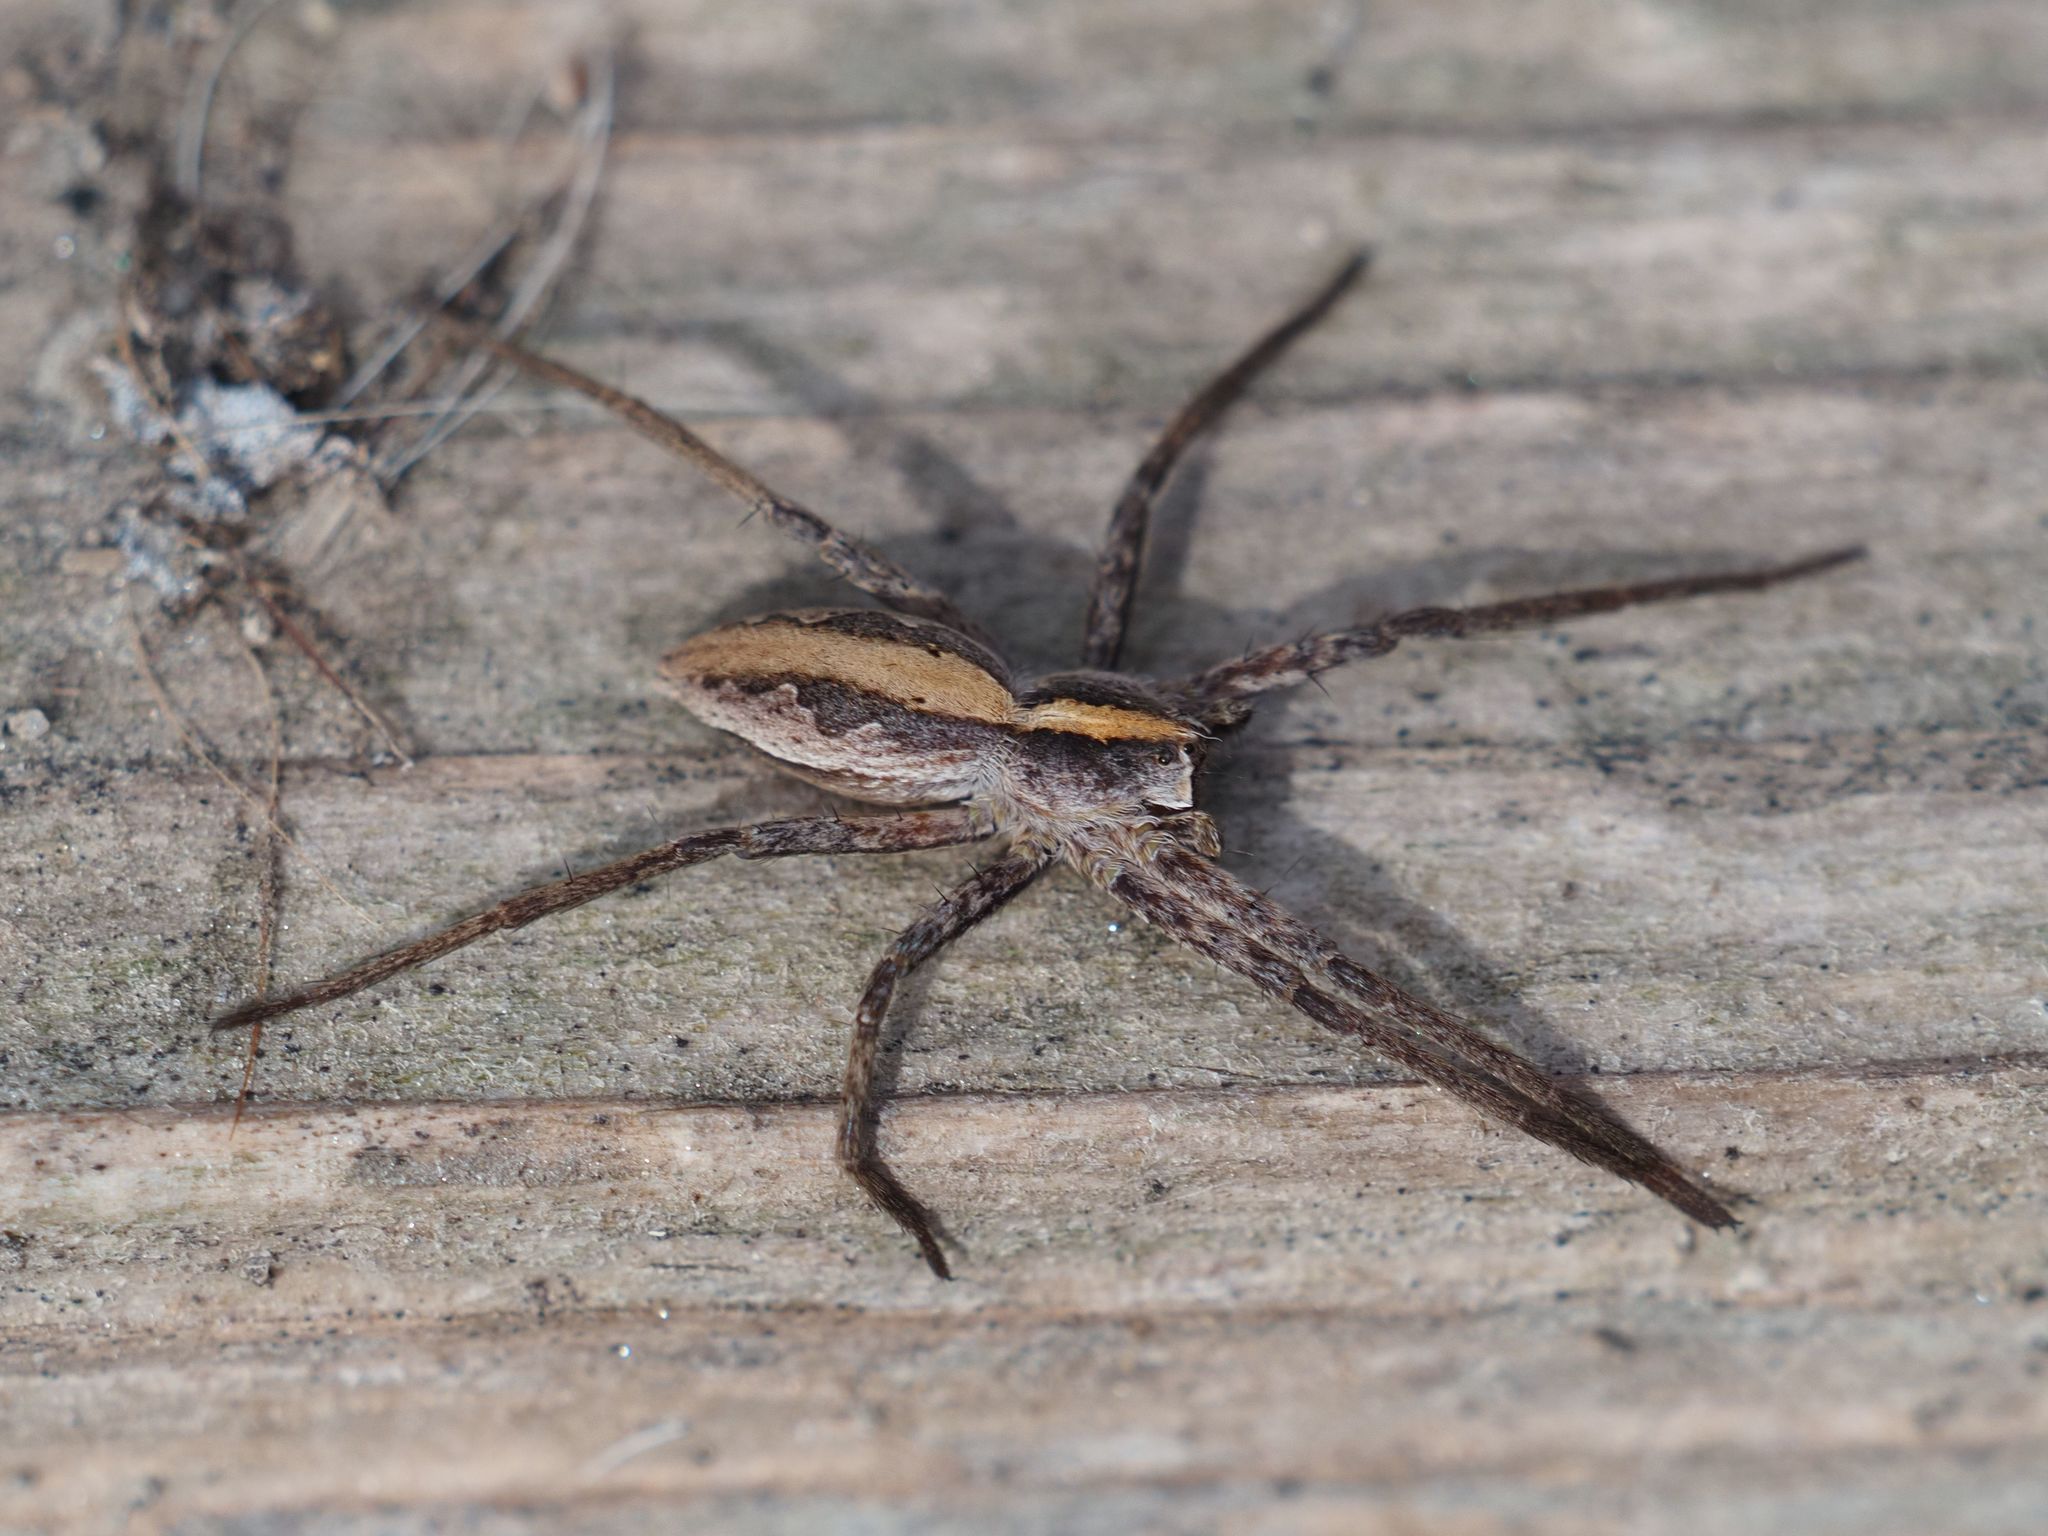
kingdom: Animalia
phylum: Arthropoda
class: Arachnida
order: Araneae
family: Pisauridae
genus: Pisaura
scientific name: Pisaura mirabilis
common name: Tent spider
